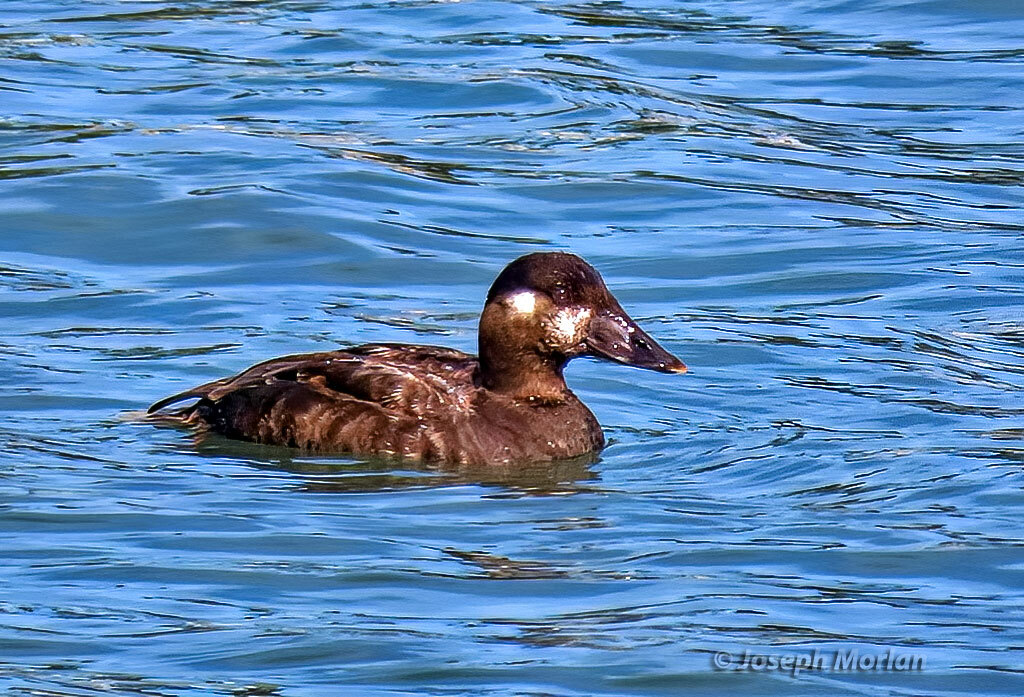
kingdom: Animalia
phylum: Chordata
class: Aves
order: Anseriformes
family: Anatidae
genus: Melanitta
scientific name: Melanitta perspicillata
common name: Surf scoter
